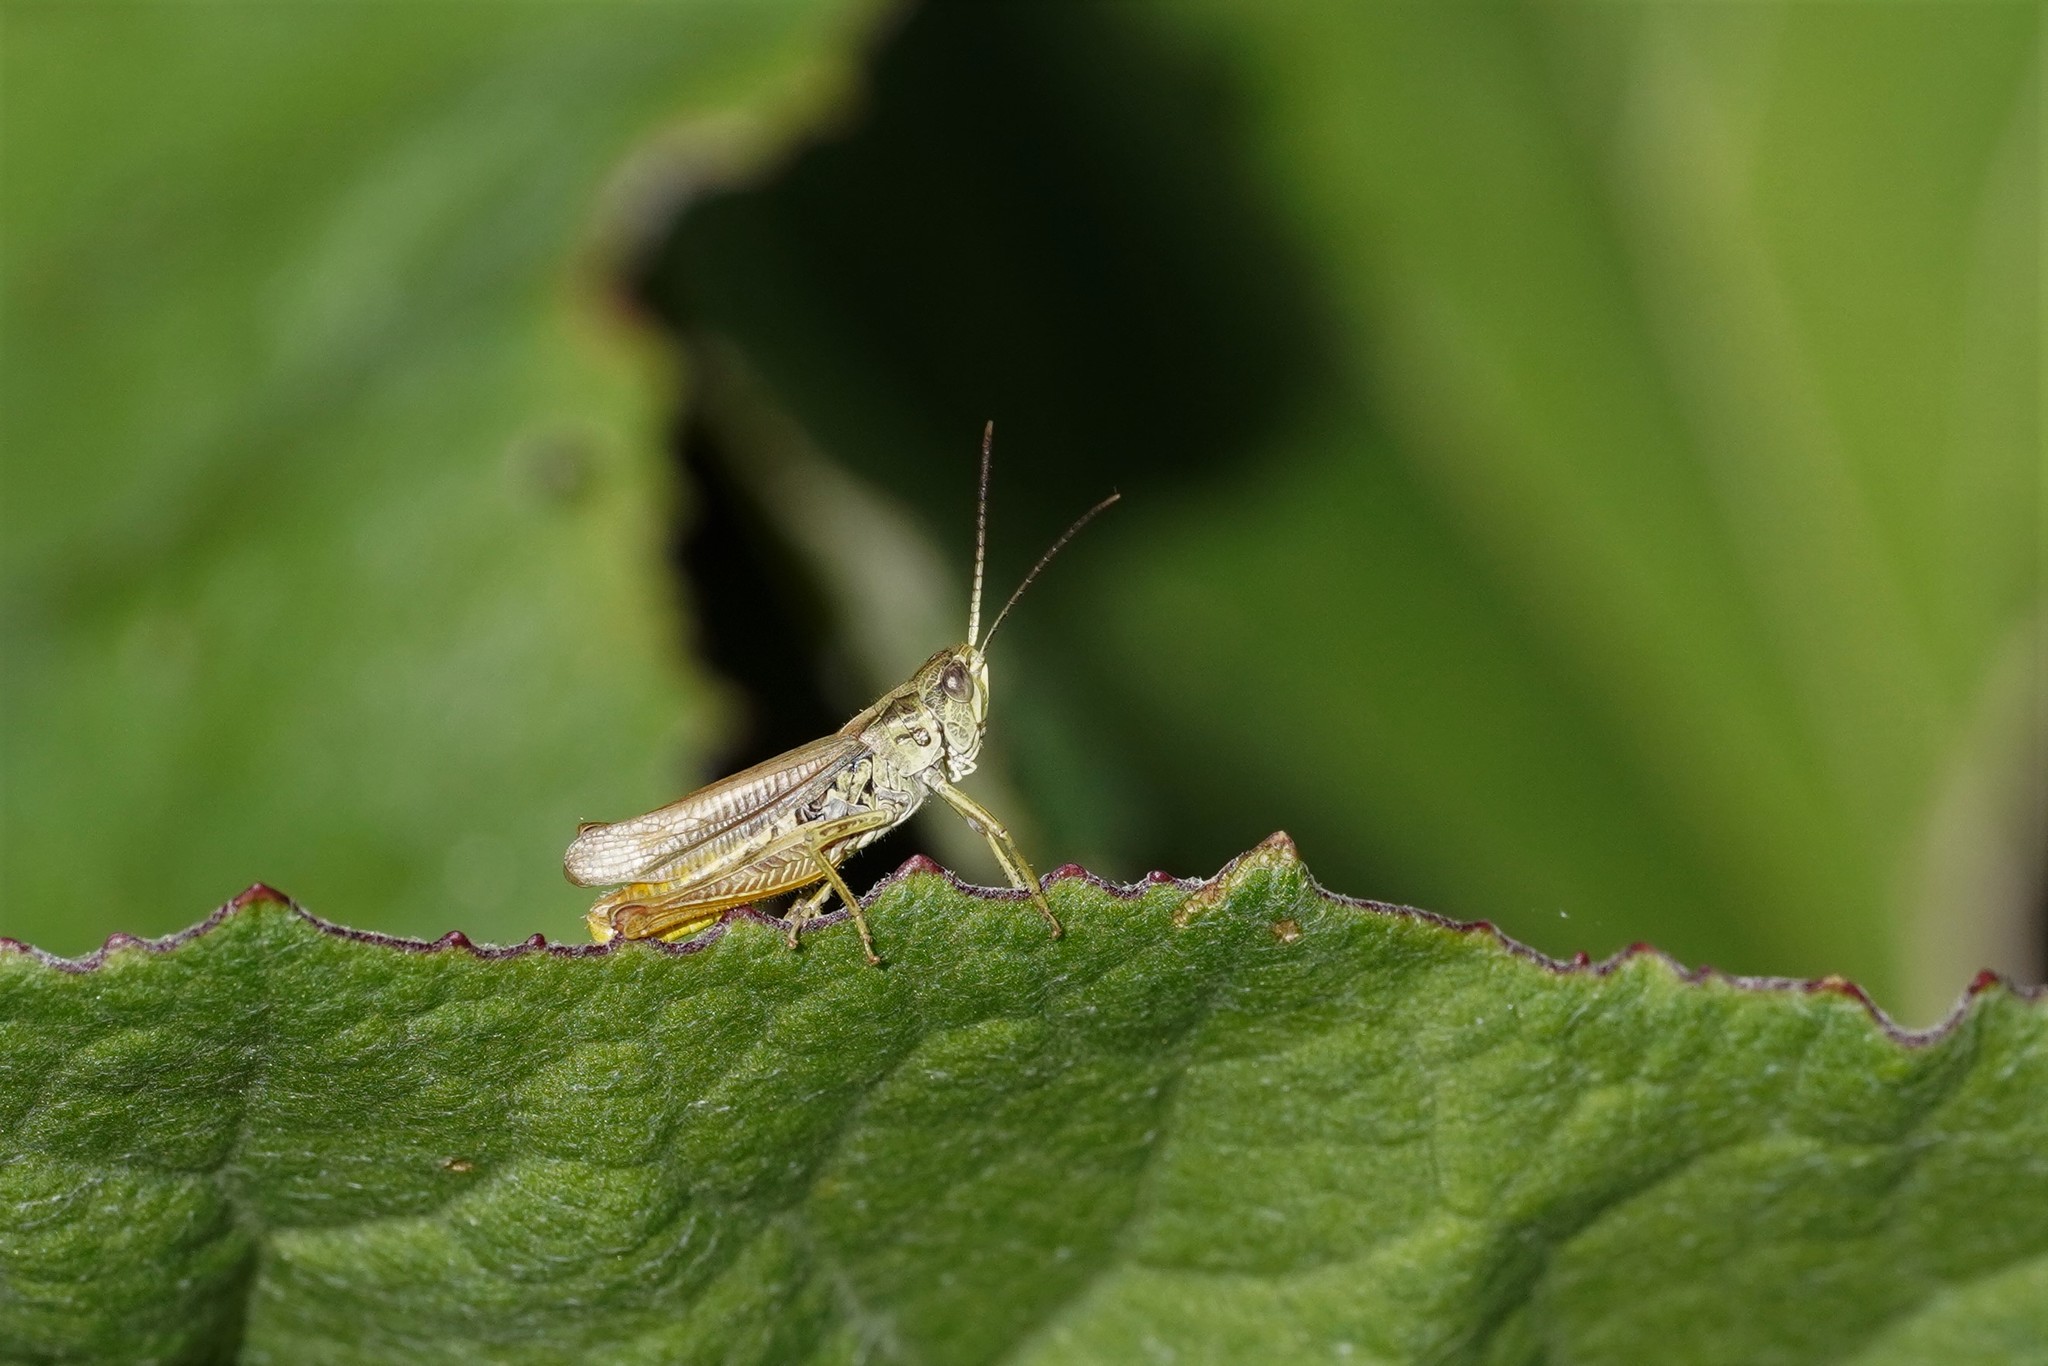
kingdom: Animalia
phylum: Arthropoda
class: Insecta
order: Orthoptera
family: Acrididae
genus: Chorthippus
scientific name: Chorthippus apricarius
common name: Upland field grasshopper
